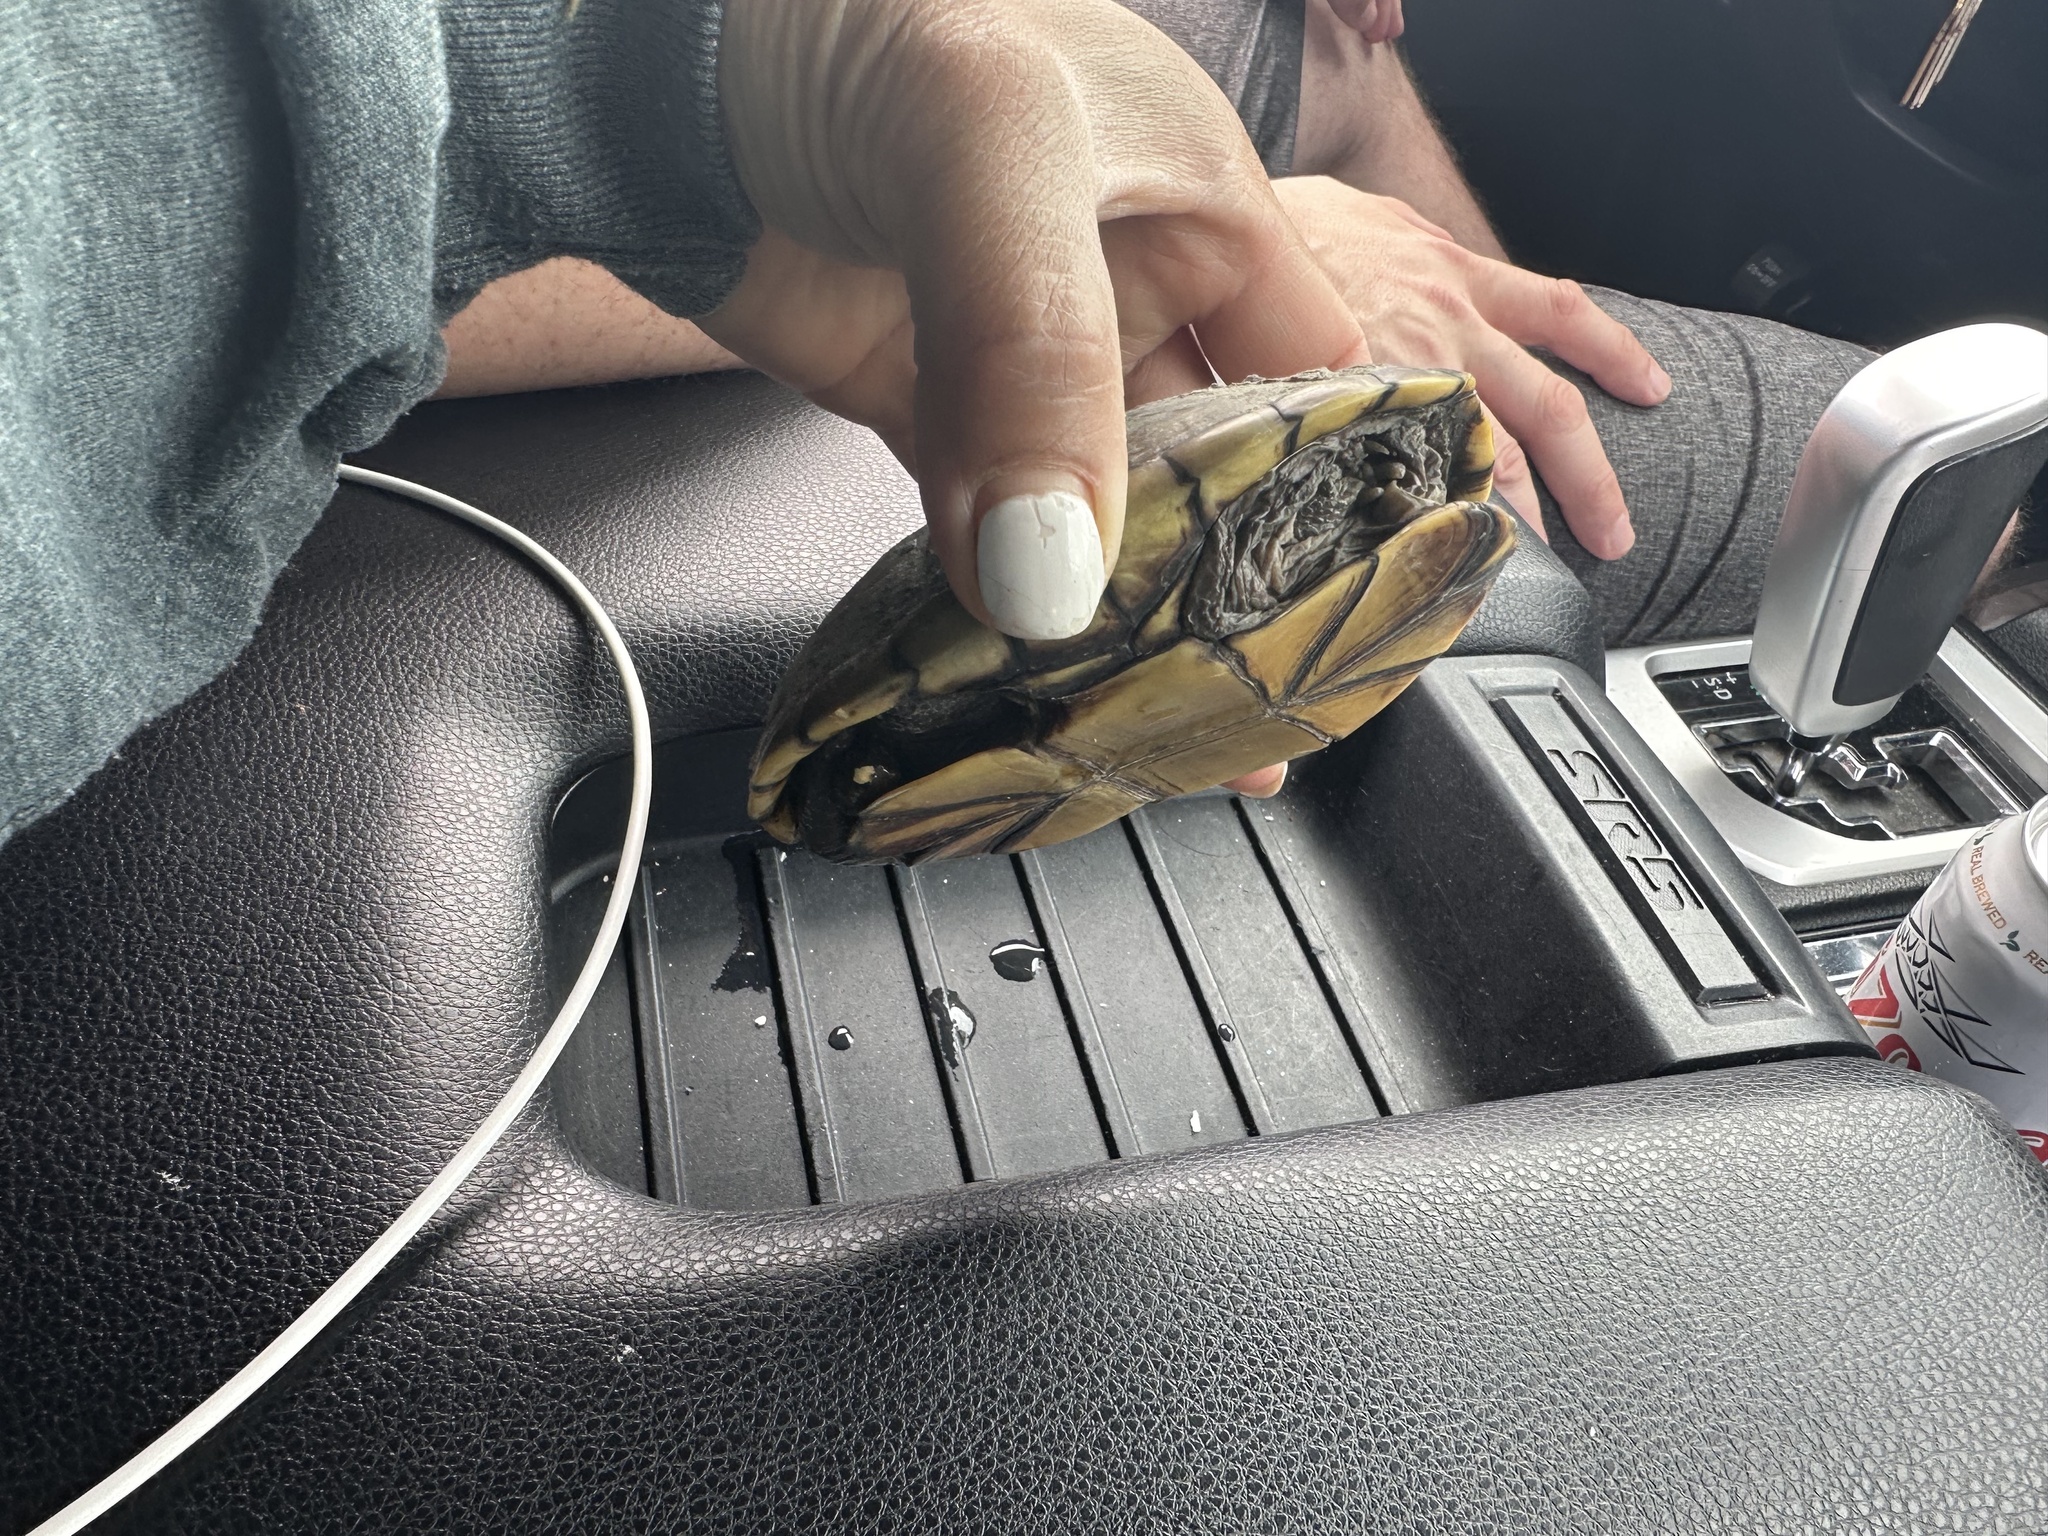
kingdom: Animalia
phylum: Chordata
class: Testudines
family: Kinosternidae
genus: Kinosternon
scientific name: Kinosternon flavescens
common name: Yellow mud turtle
